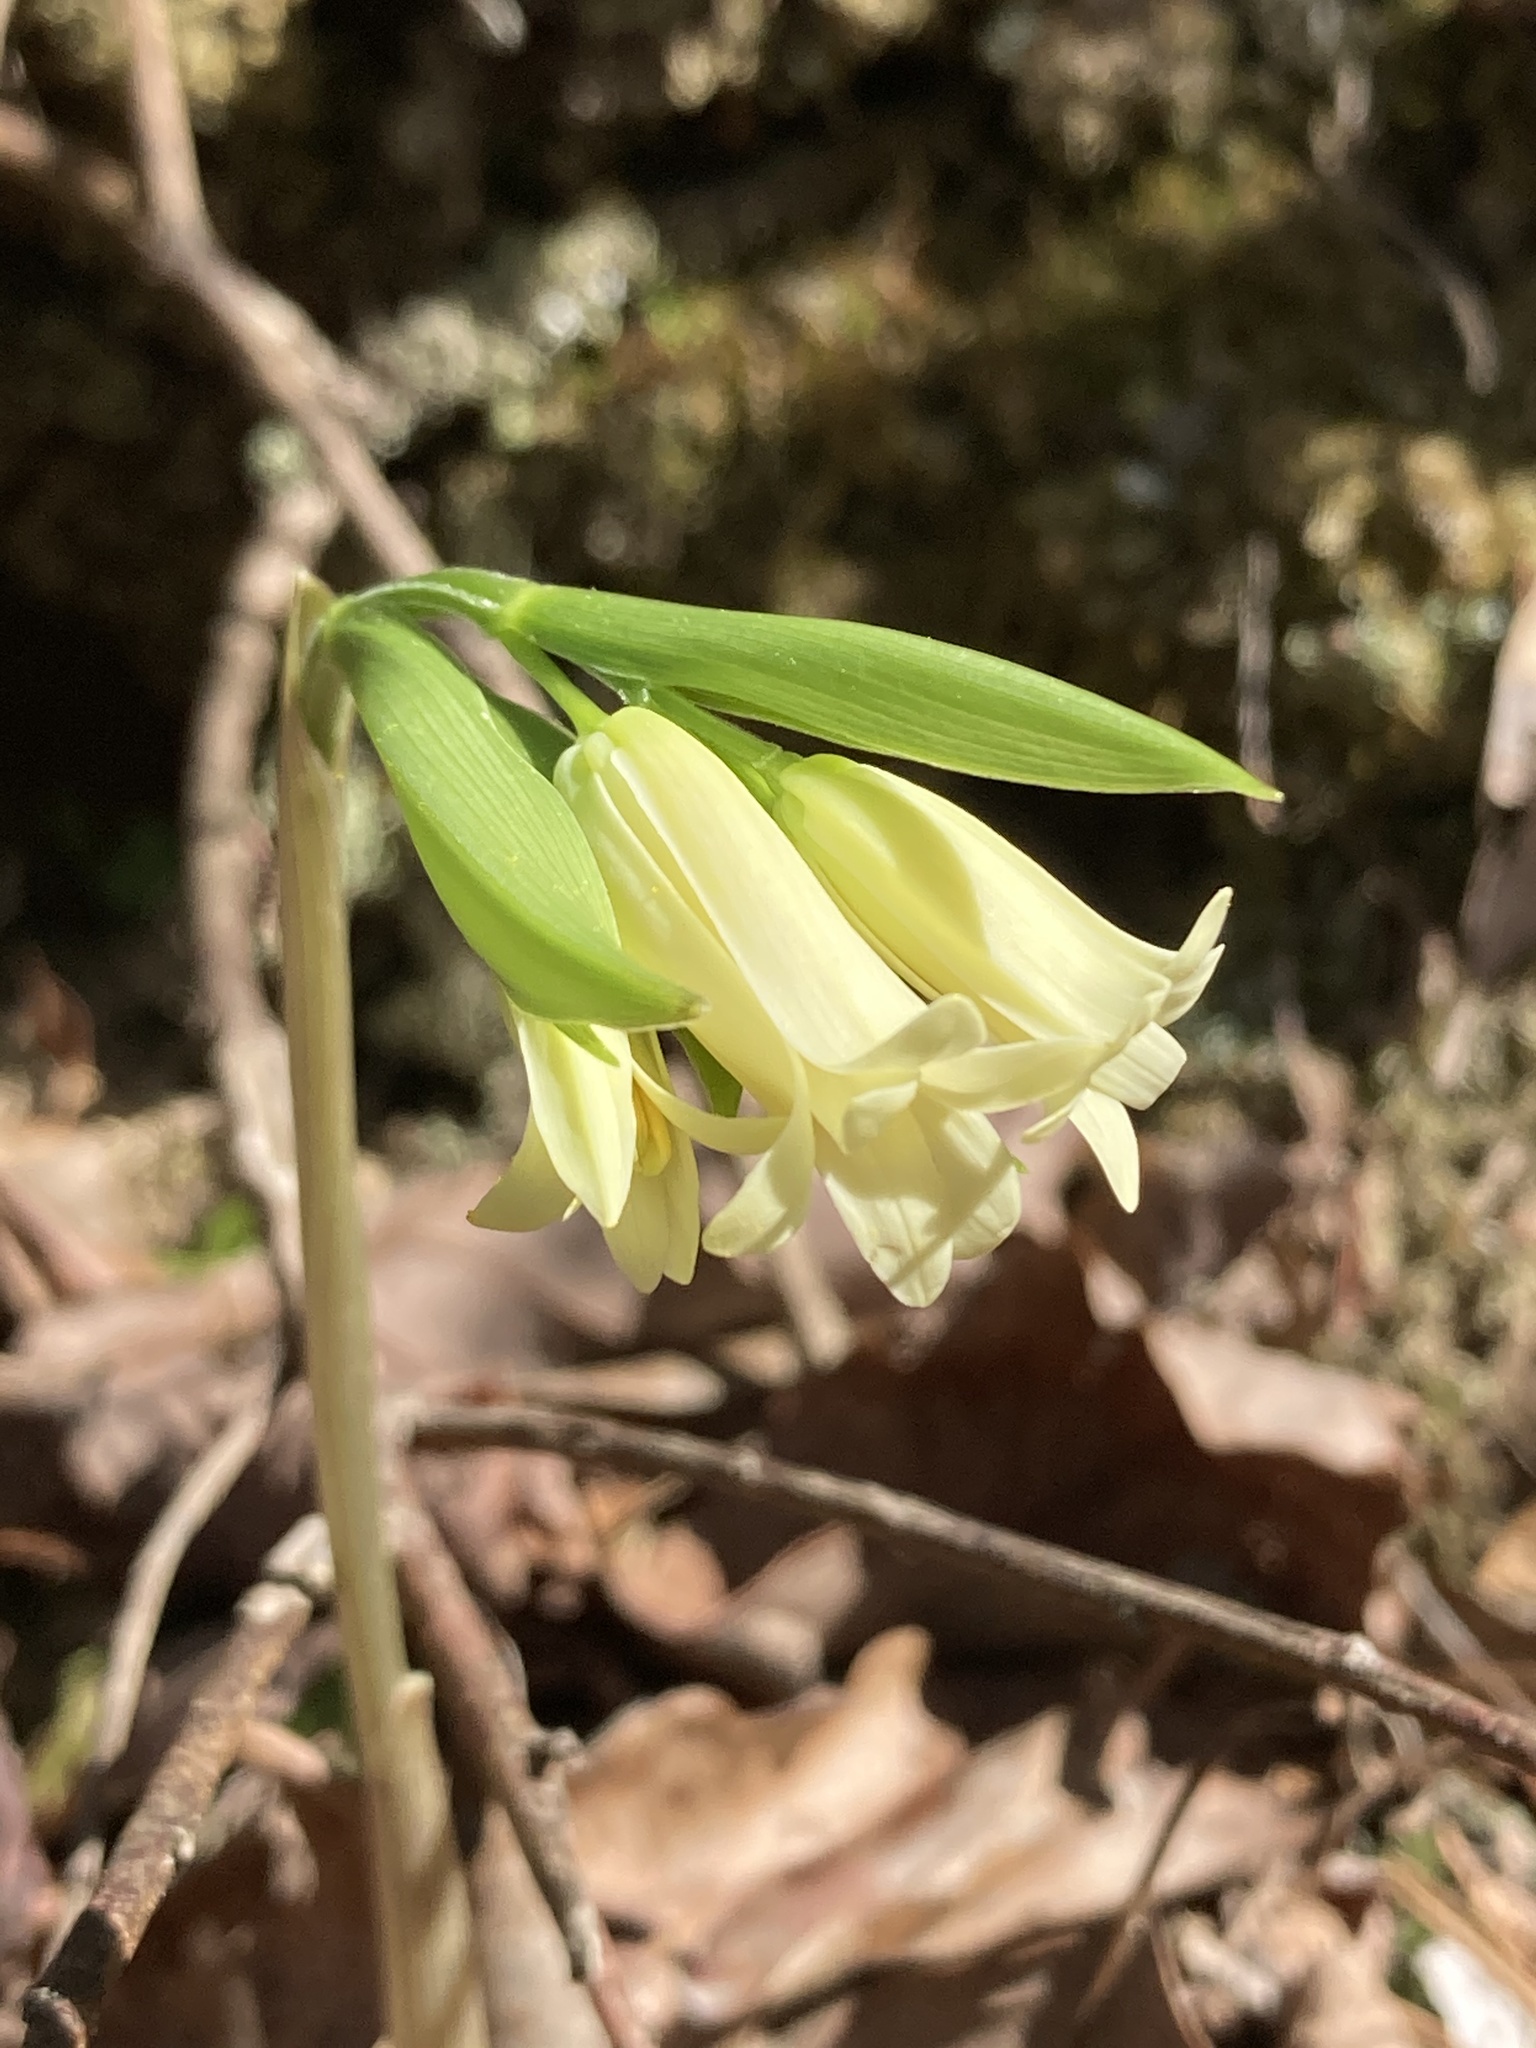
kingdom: Plantae
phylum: Tracheophyta
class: Liliopsida
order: Liliales
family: Colchicaceae
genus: Uvularia
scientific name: Uvularia puberula
